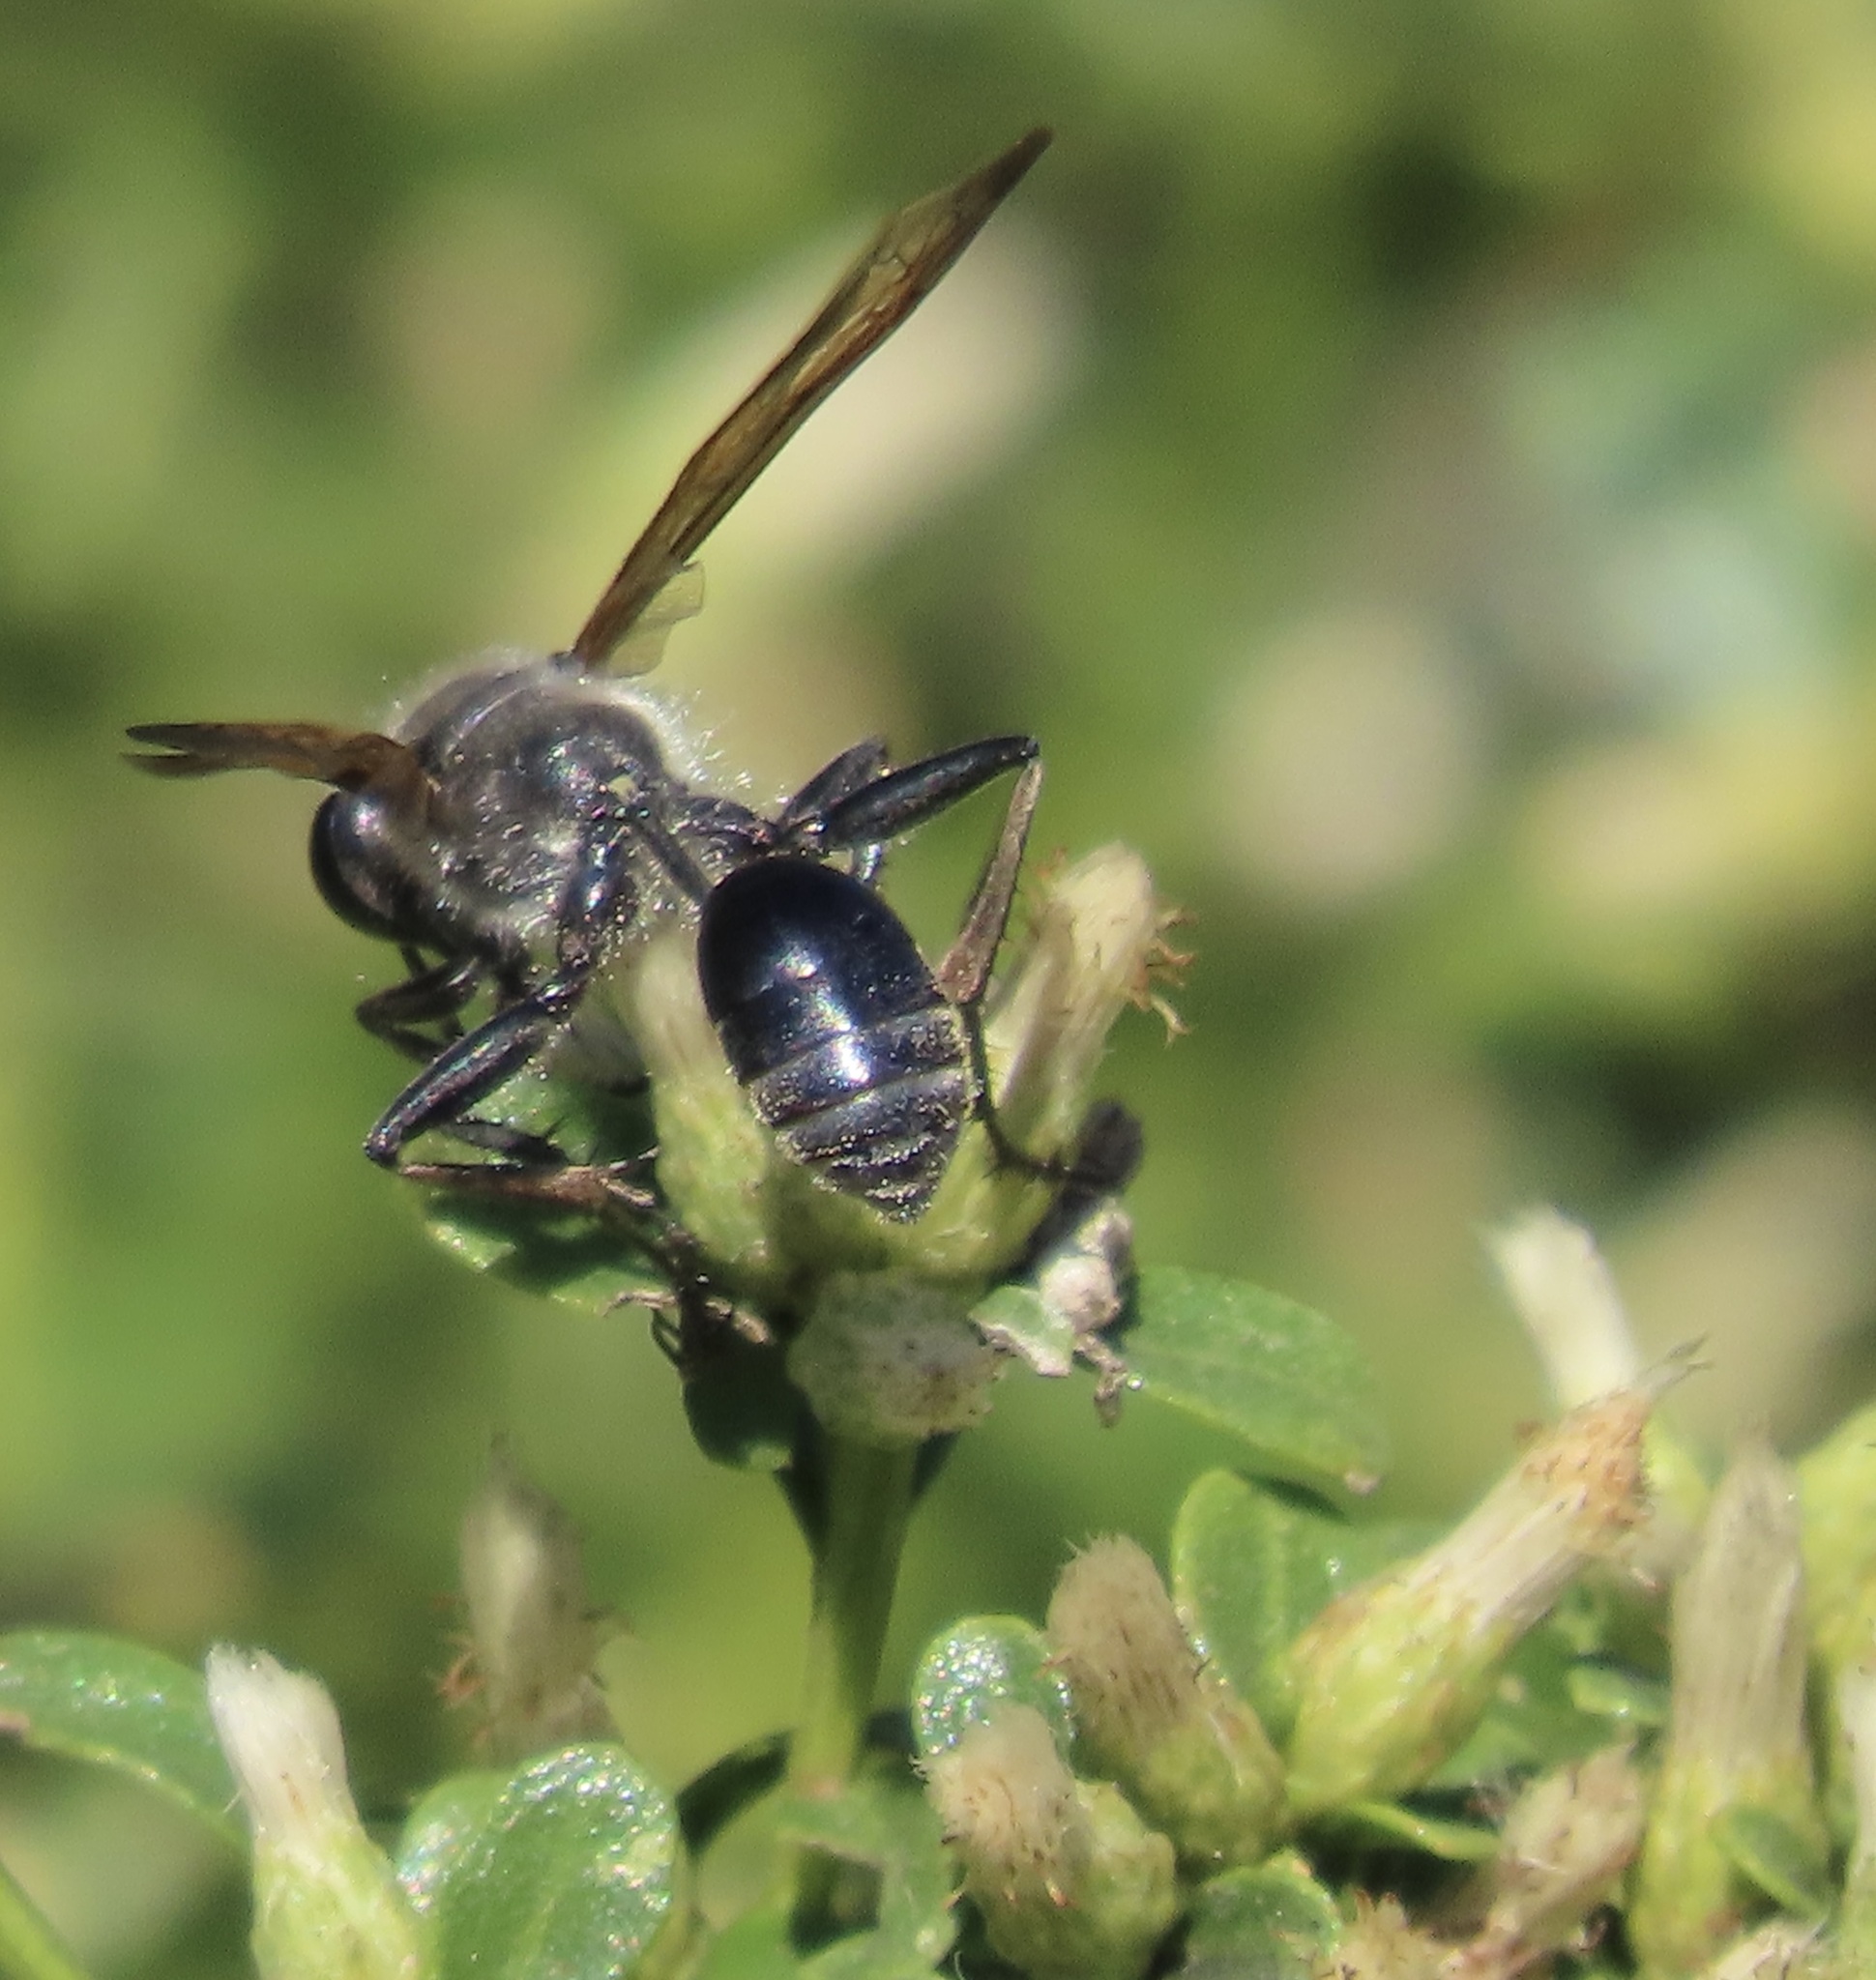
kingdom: Animalia
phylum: Arthropoda
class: Insecta
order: Hymenoptera
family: Sphecidae
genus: Isodontia
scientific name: Isodontia mexicana
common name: Mud dauber
